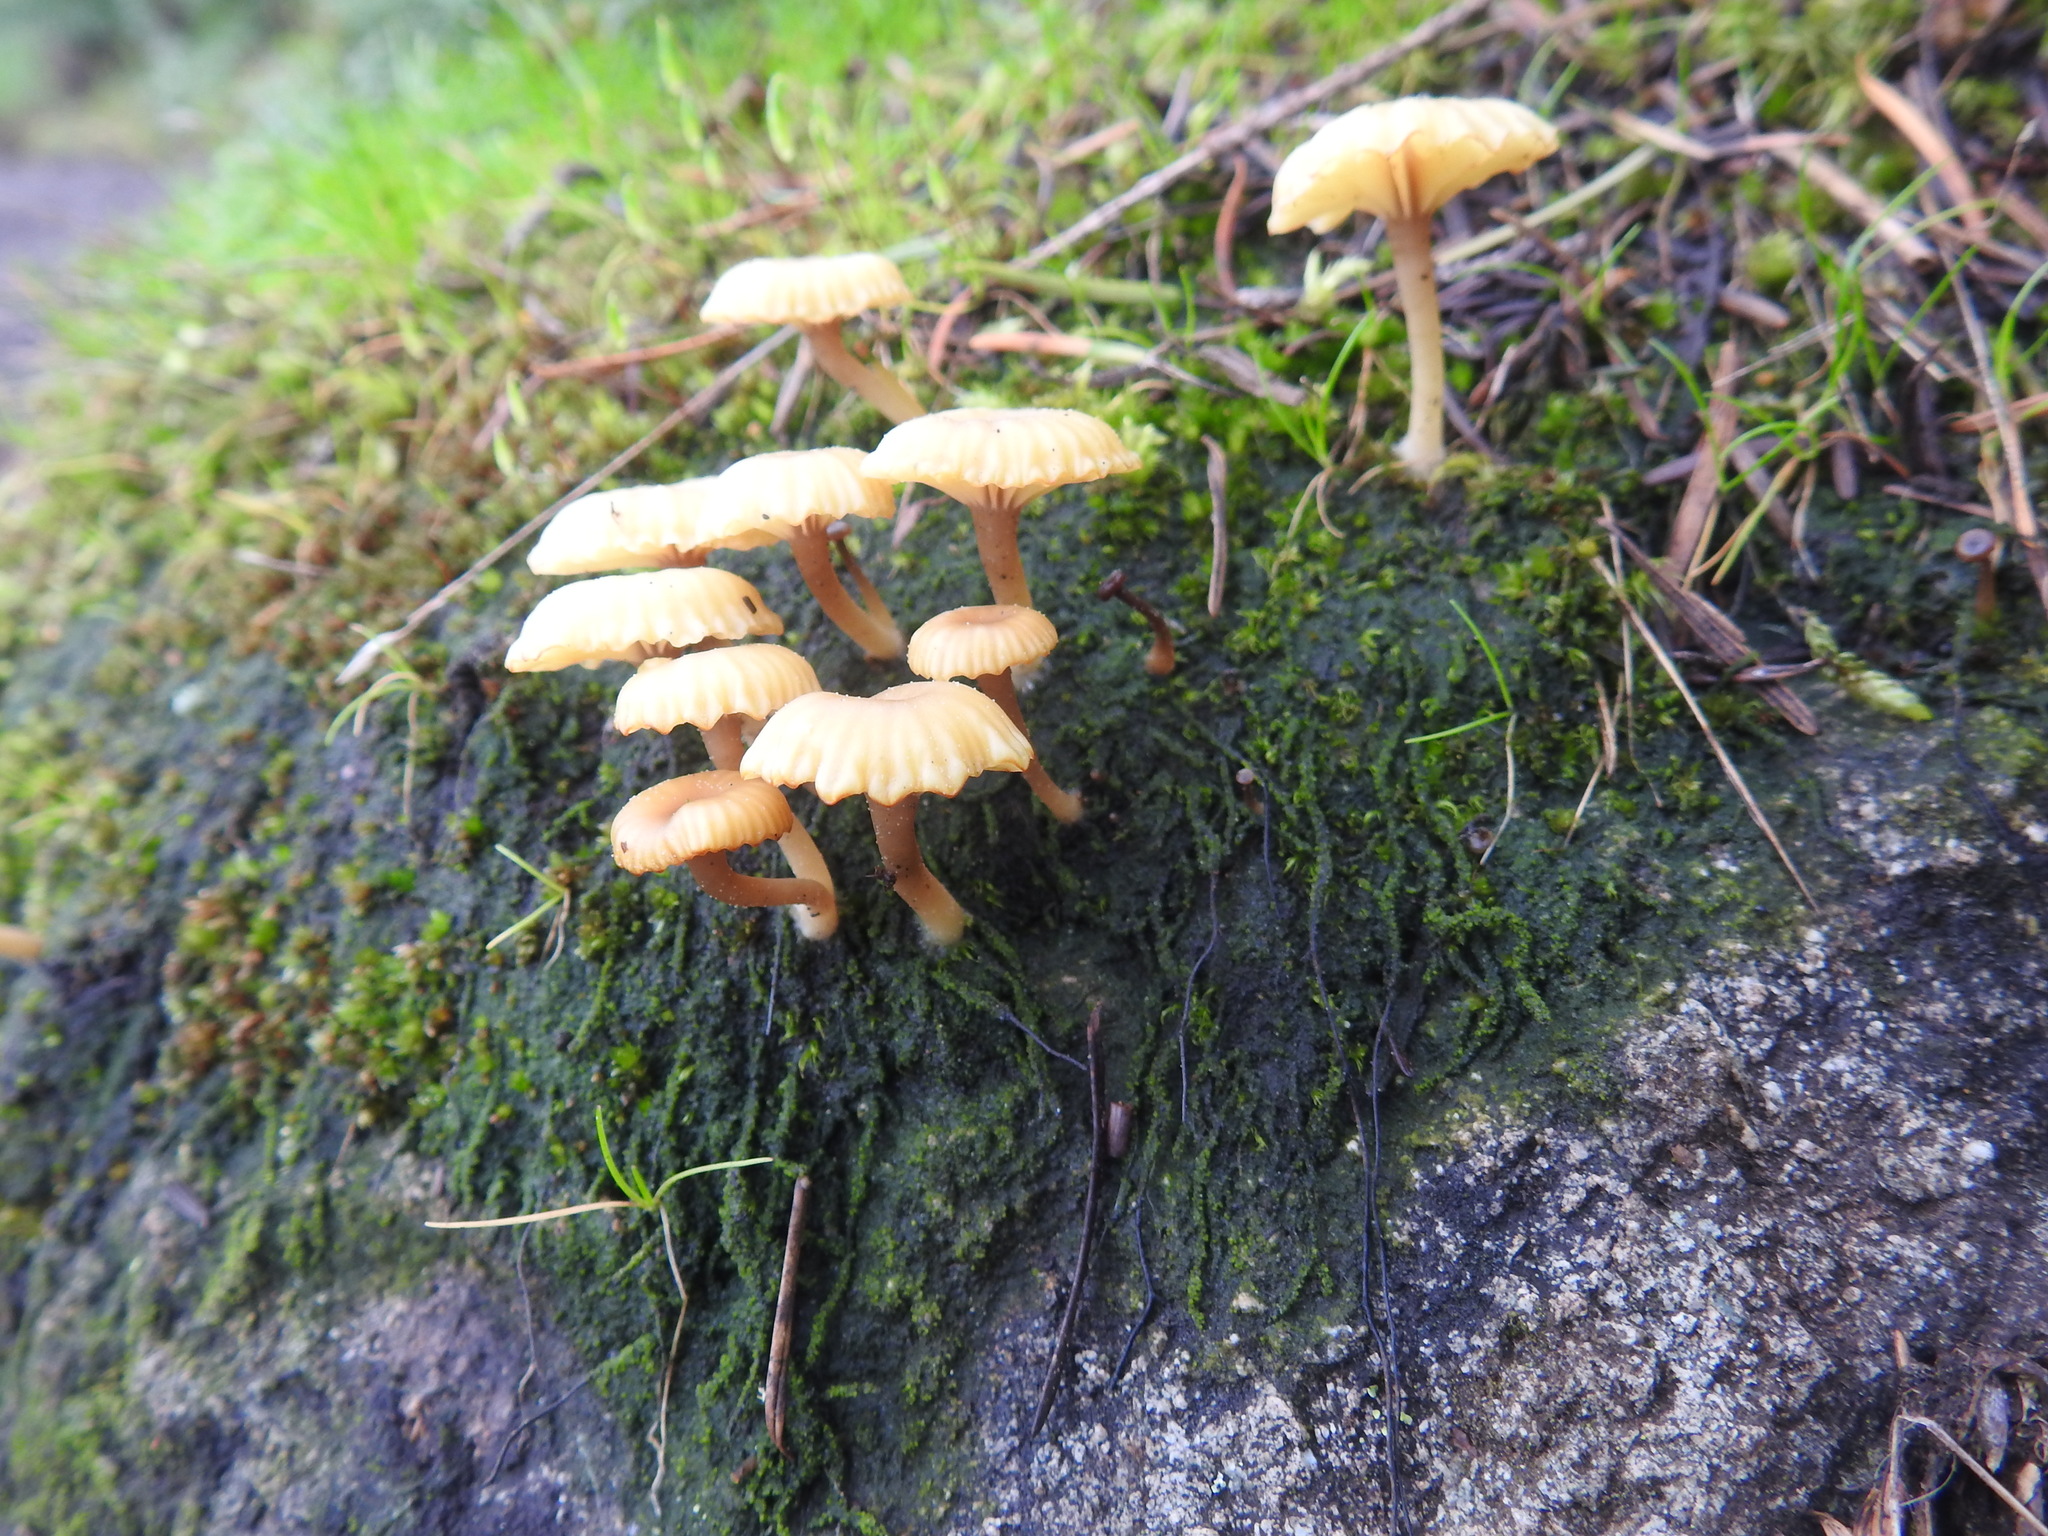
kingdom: Fungi
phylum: Basidiomycota
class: Agaricomycetes
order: Agaricales
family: Hygrophoraceae
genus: Lichenomphalia
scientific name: Lichenomphalia
